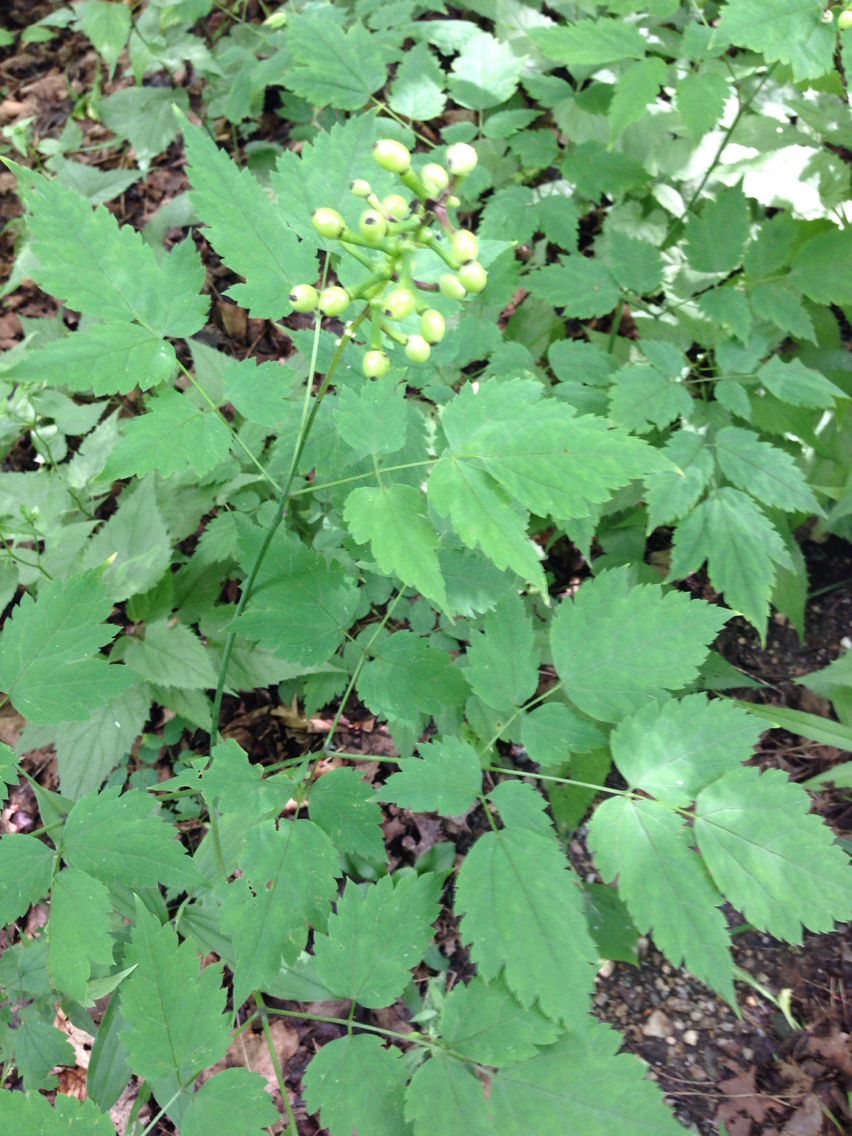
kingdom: Plantae
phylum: Tracheophyta
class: Magnoliopsida
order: Ranunculales
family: Ranunculaceae
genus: Actaea
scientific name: Actaea pachypoda
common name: Doll's-eyes
